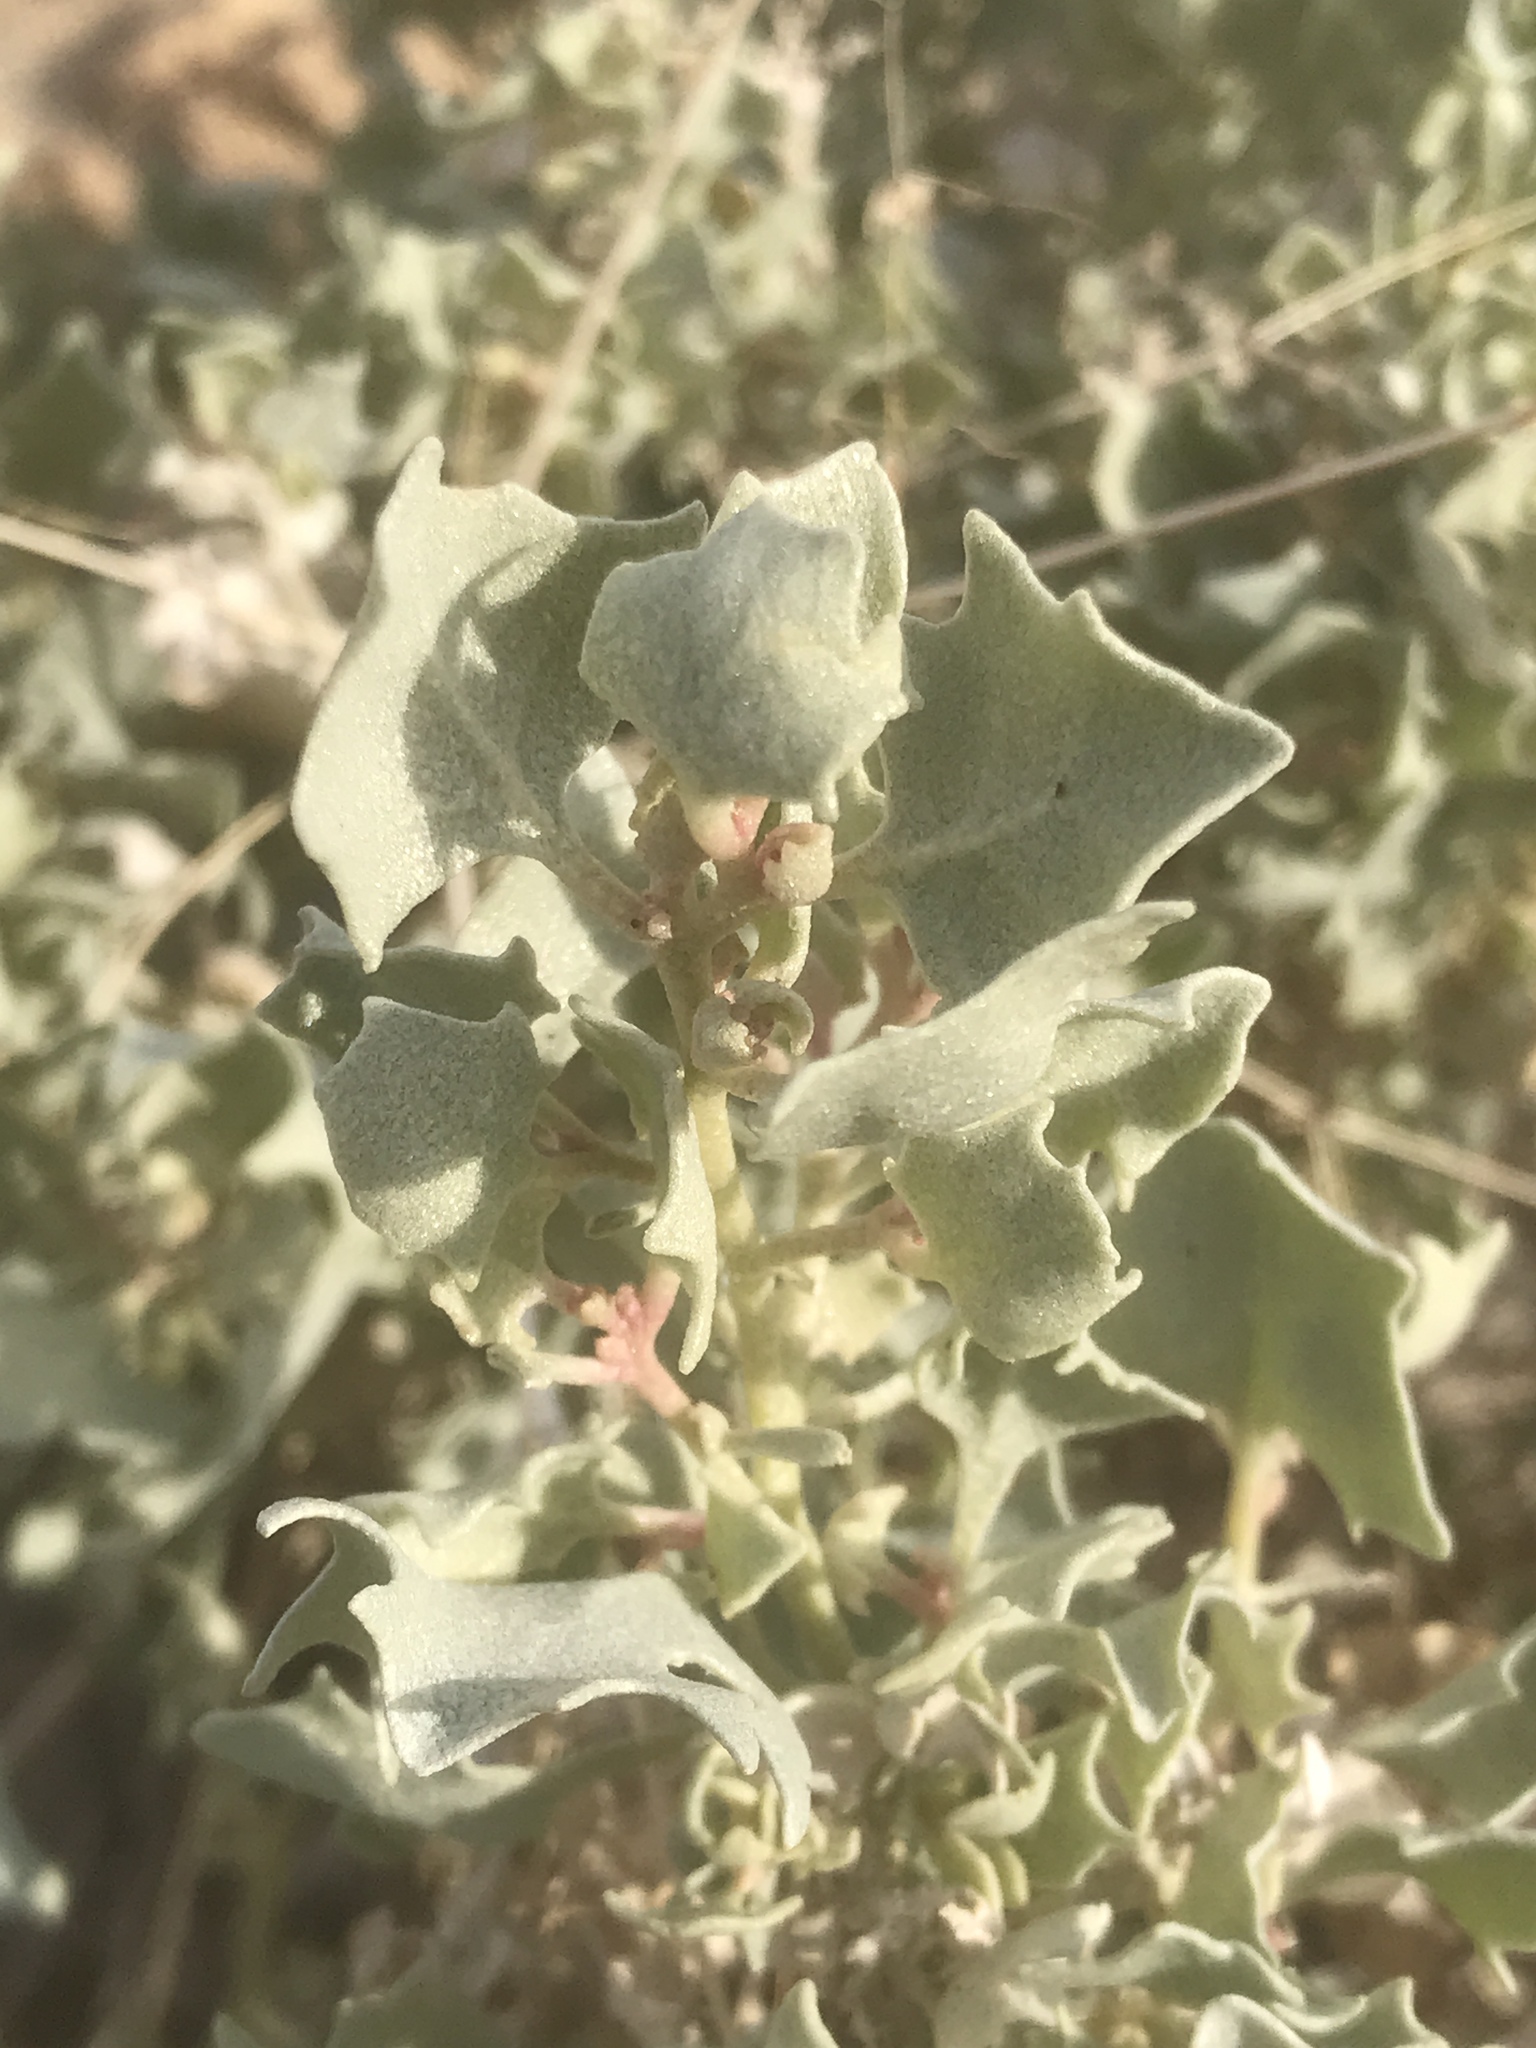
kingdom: Plantae
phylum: Tracheophyta
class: Magnoliopsida
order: Caryophyllales
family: Amaranthaceae
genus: Atriplex
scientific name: Atriplex hymenelytra
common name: Desert-holly
